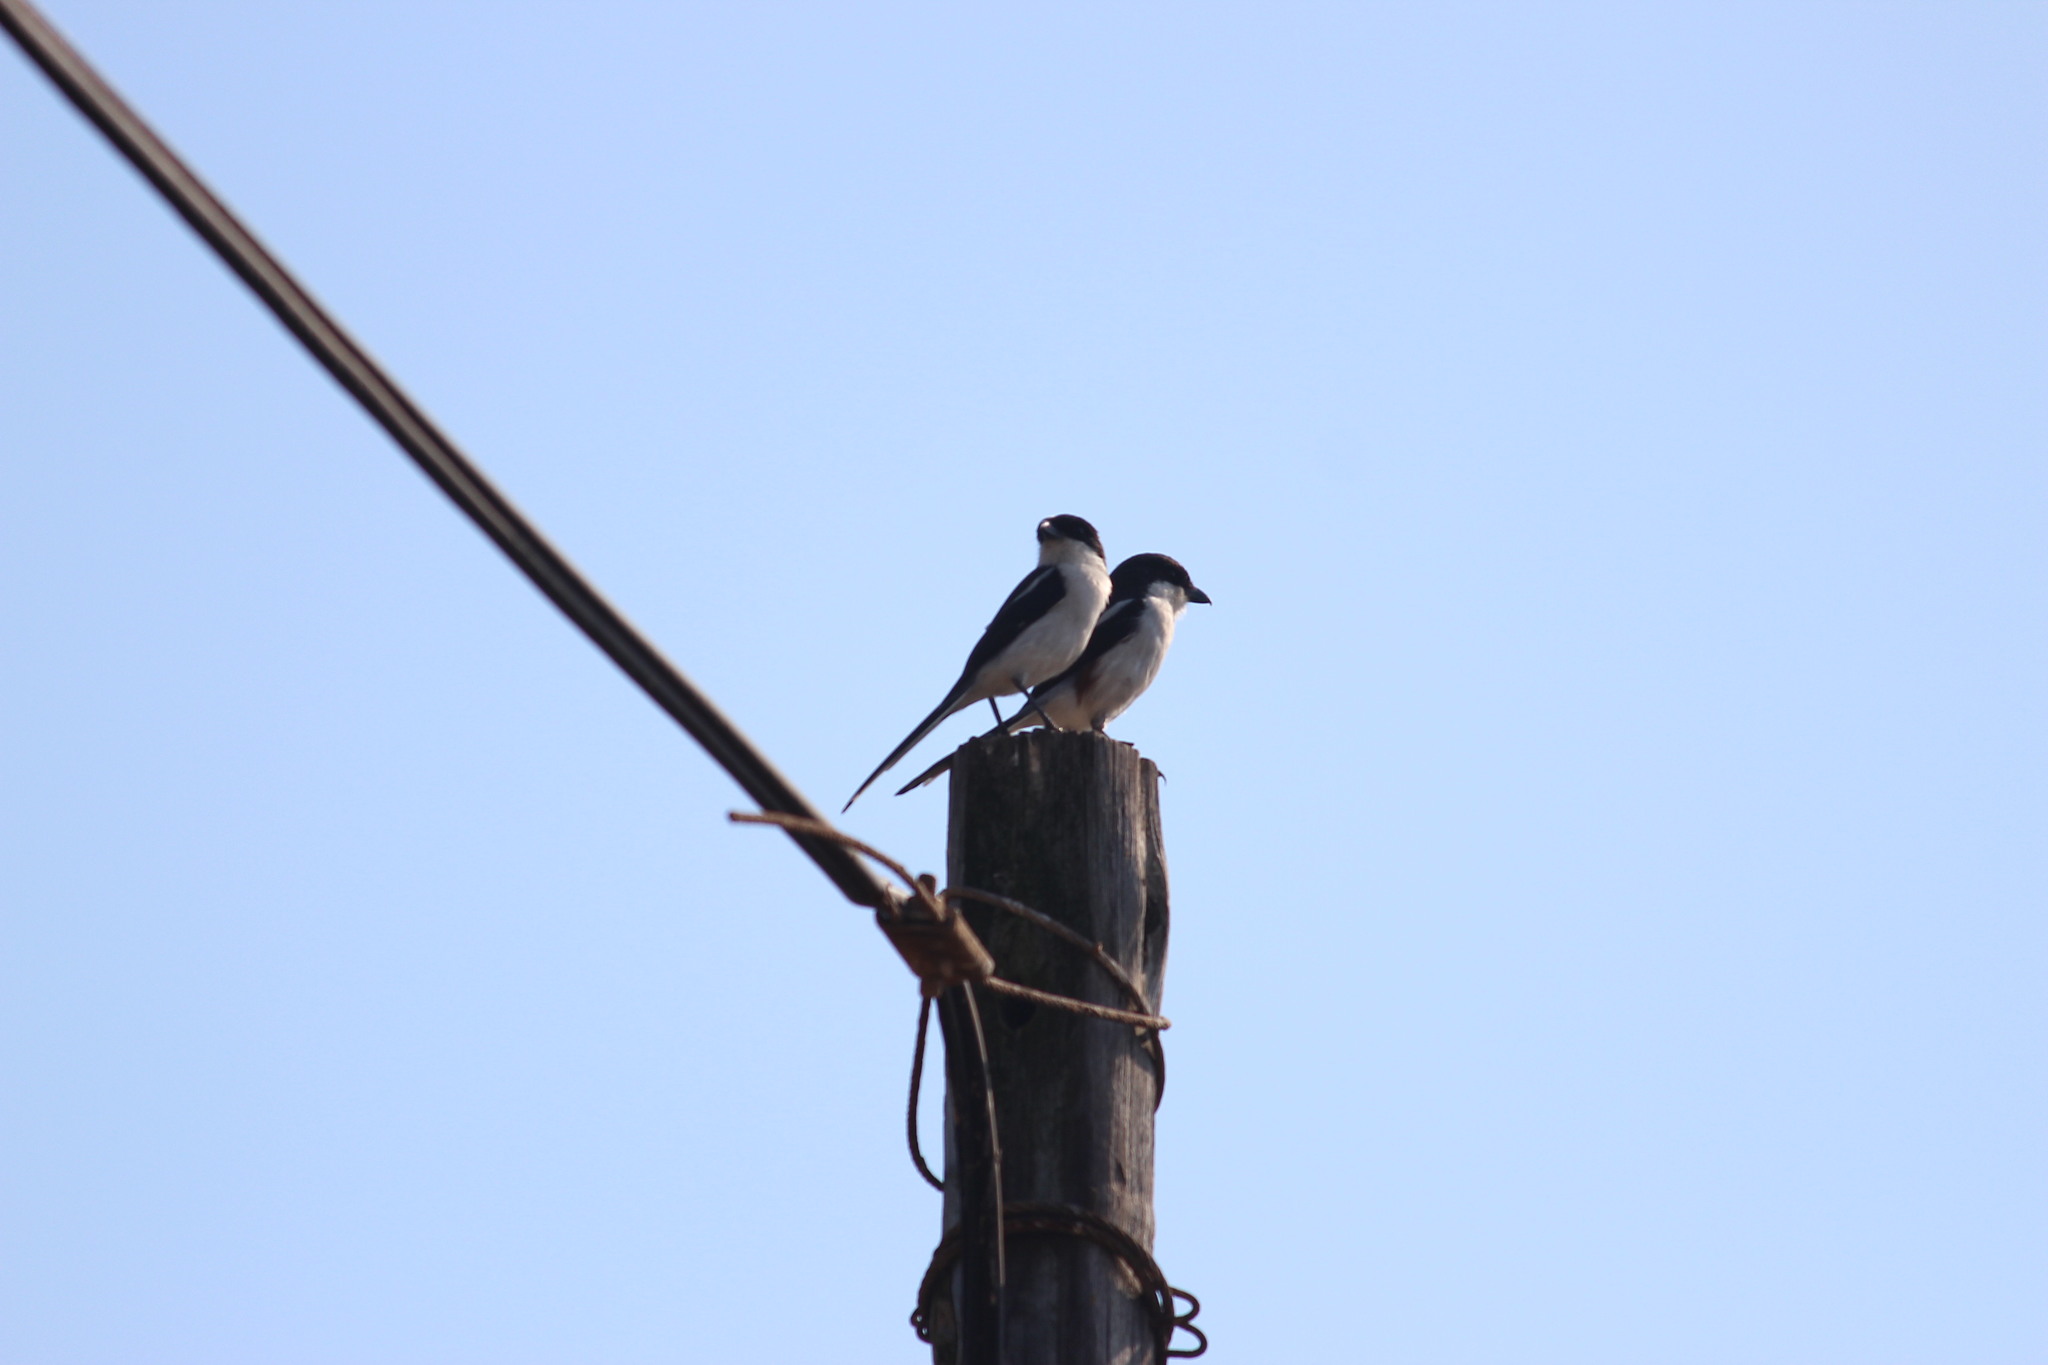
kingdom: Animalia
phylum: Chordata
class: Aves
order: Passeriformes
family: Laniidae
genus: Lanius
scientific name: Lanius collaris
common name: Southern fiscal
